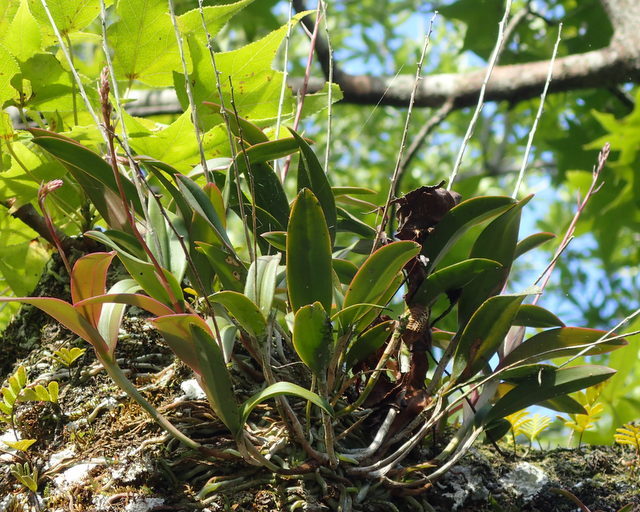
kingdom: Plantae
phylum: Tracheophyta
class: Liliopsida
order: Asparagales
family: Orchidaceae
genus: Epidendrum
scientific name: Epidendrum conopseum
